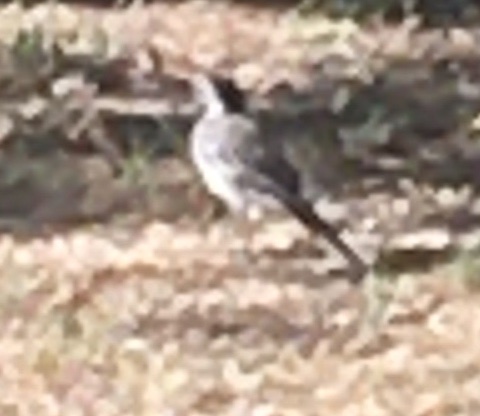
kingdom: Animalia
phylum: Chordata
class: Aves
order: Passeriformes
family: Motacillidae
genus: Motacilla
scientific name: Motacilla alba
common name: White wagtail
